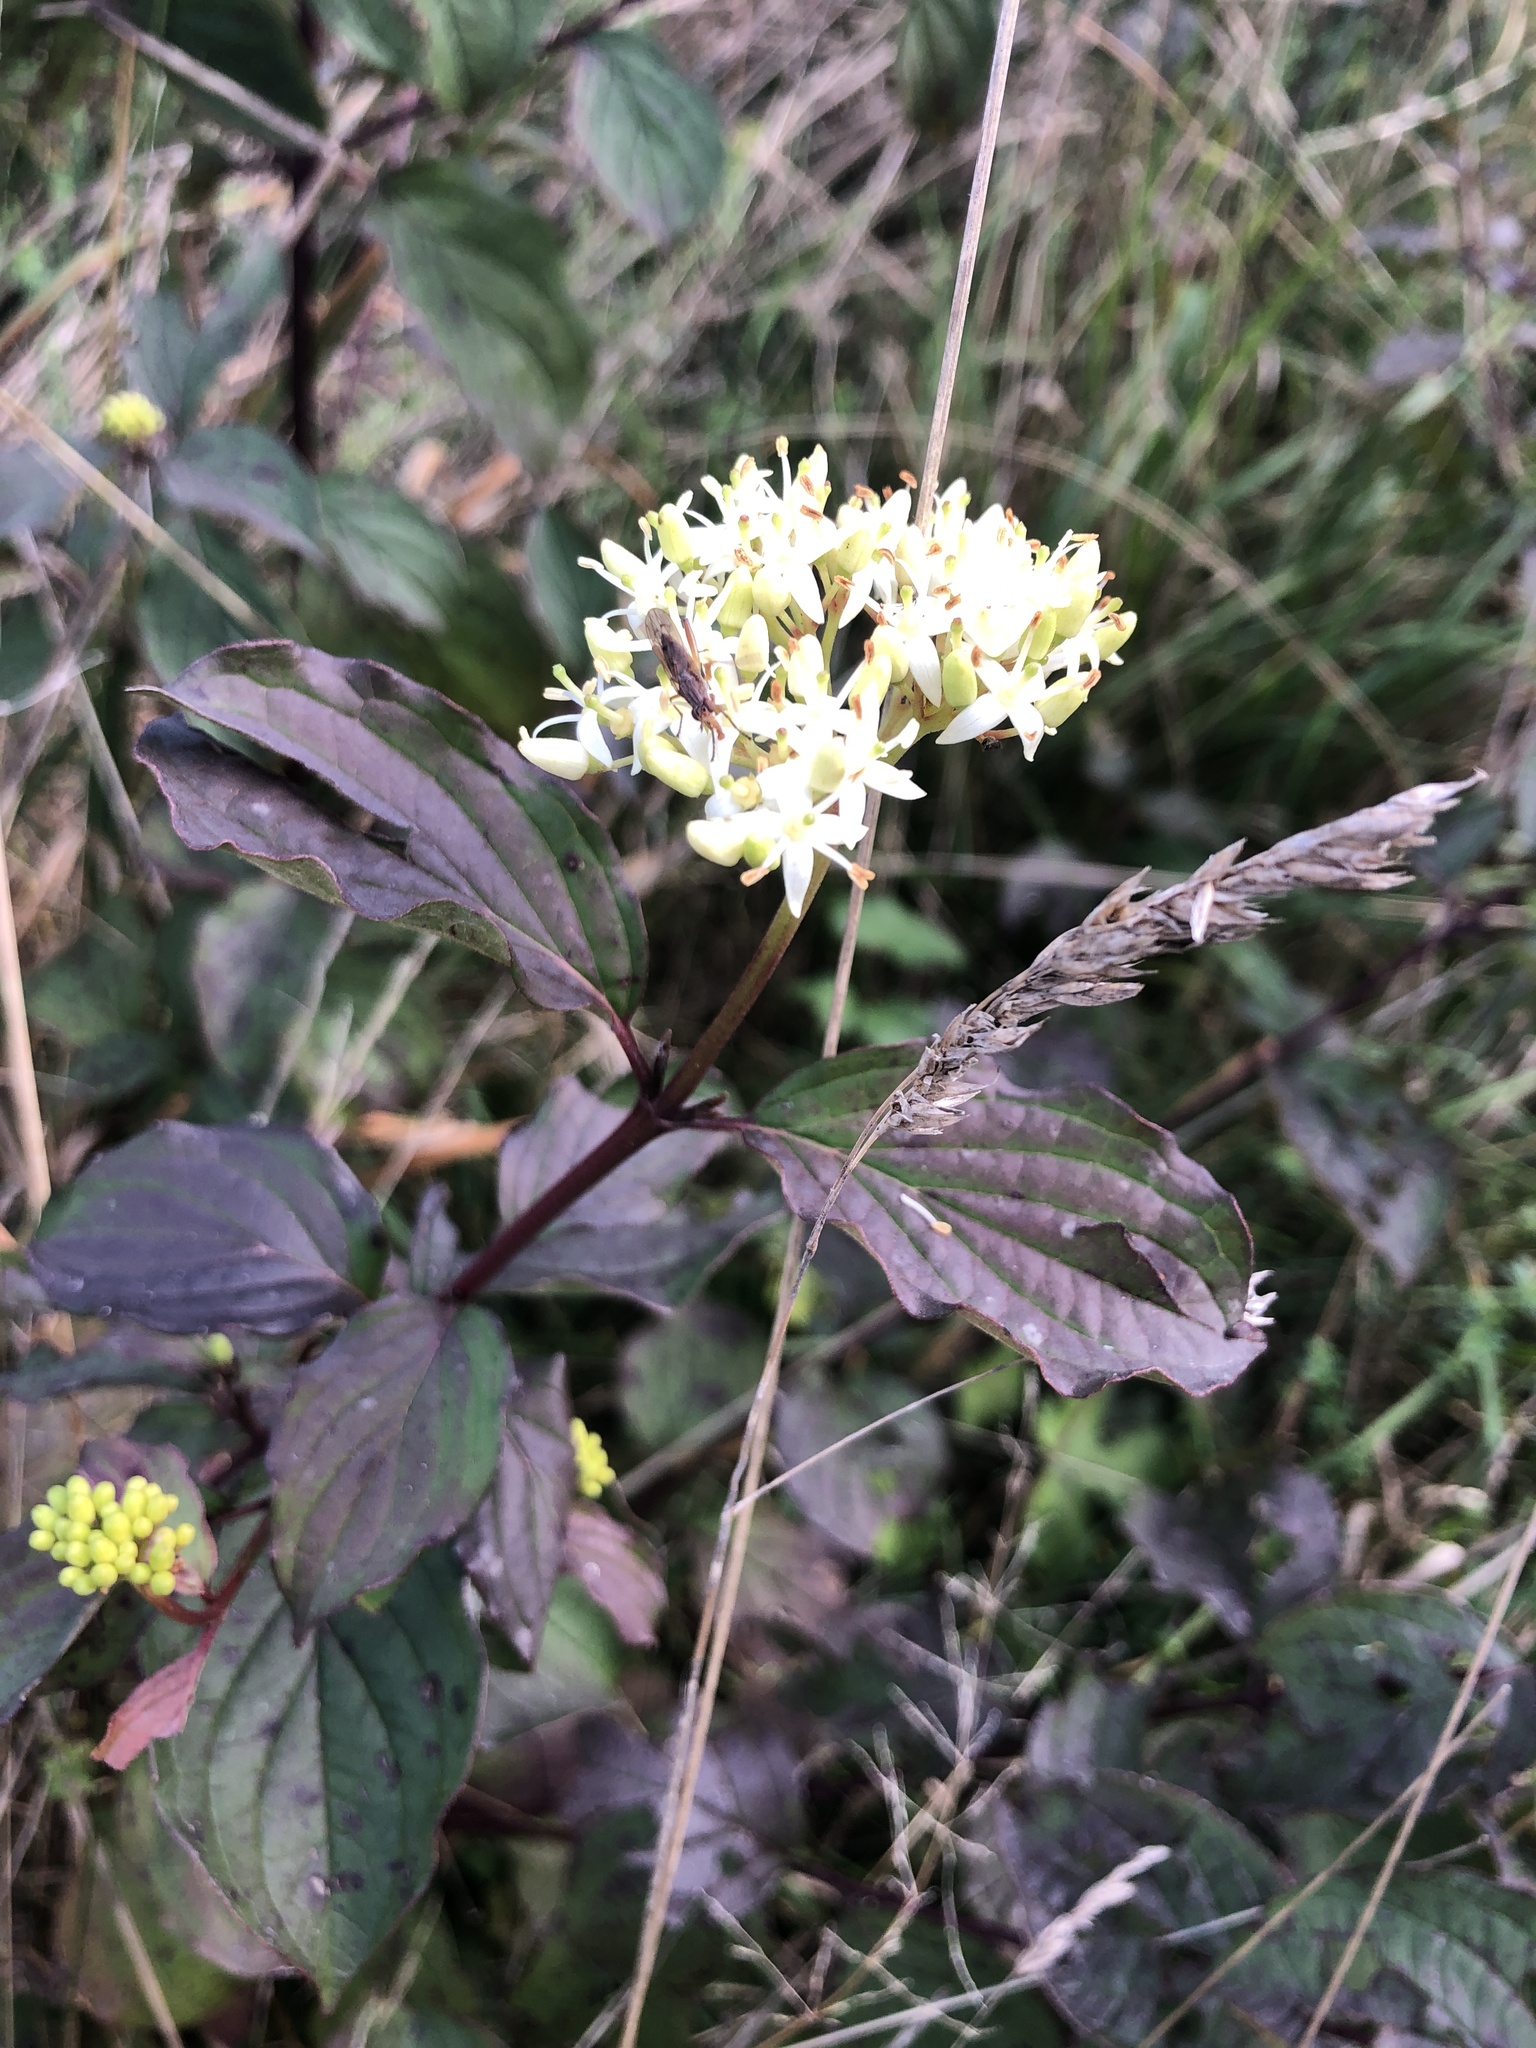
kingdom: Plantae
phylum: Tracheophyta
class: Magnoliopsida
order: Cornales
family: Cornaceae
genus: Cornus
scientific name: Cornus sanguinea
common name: Dogwood
